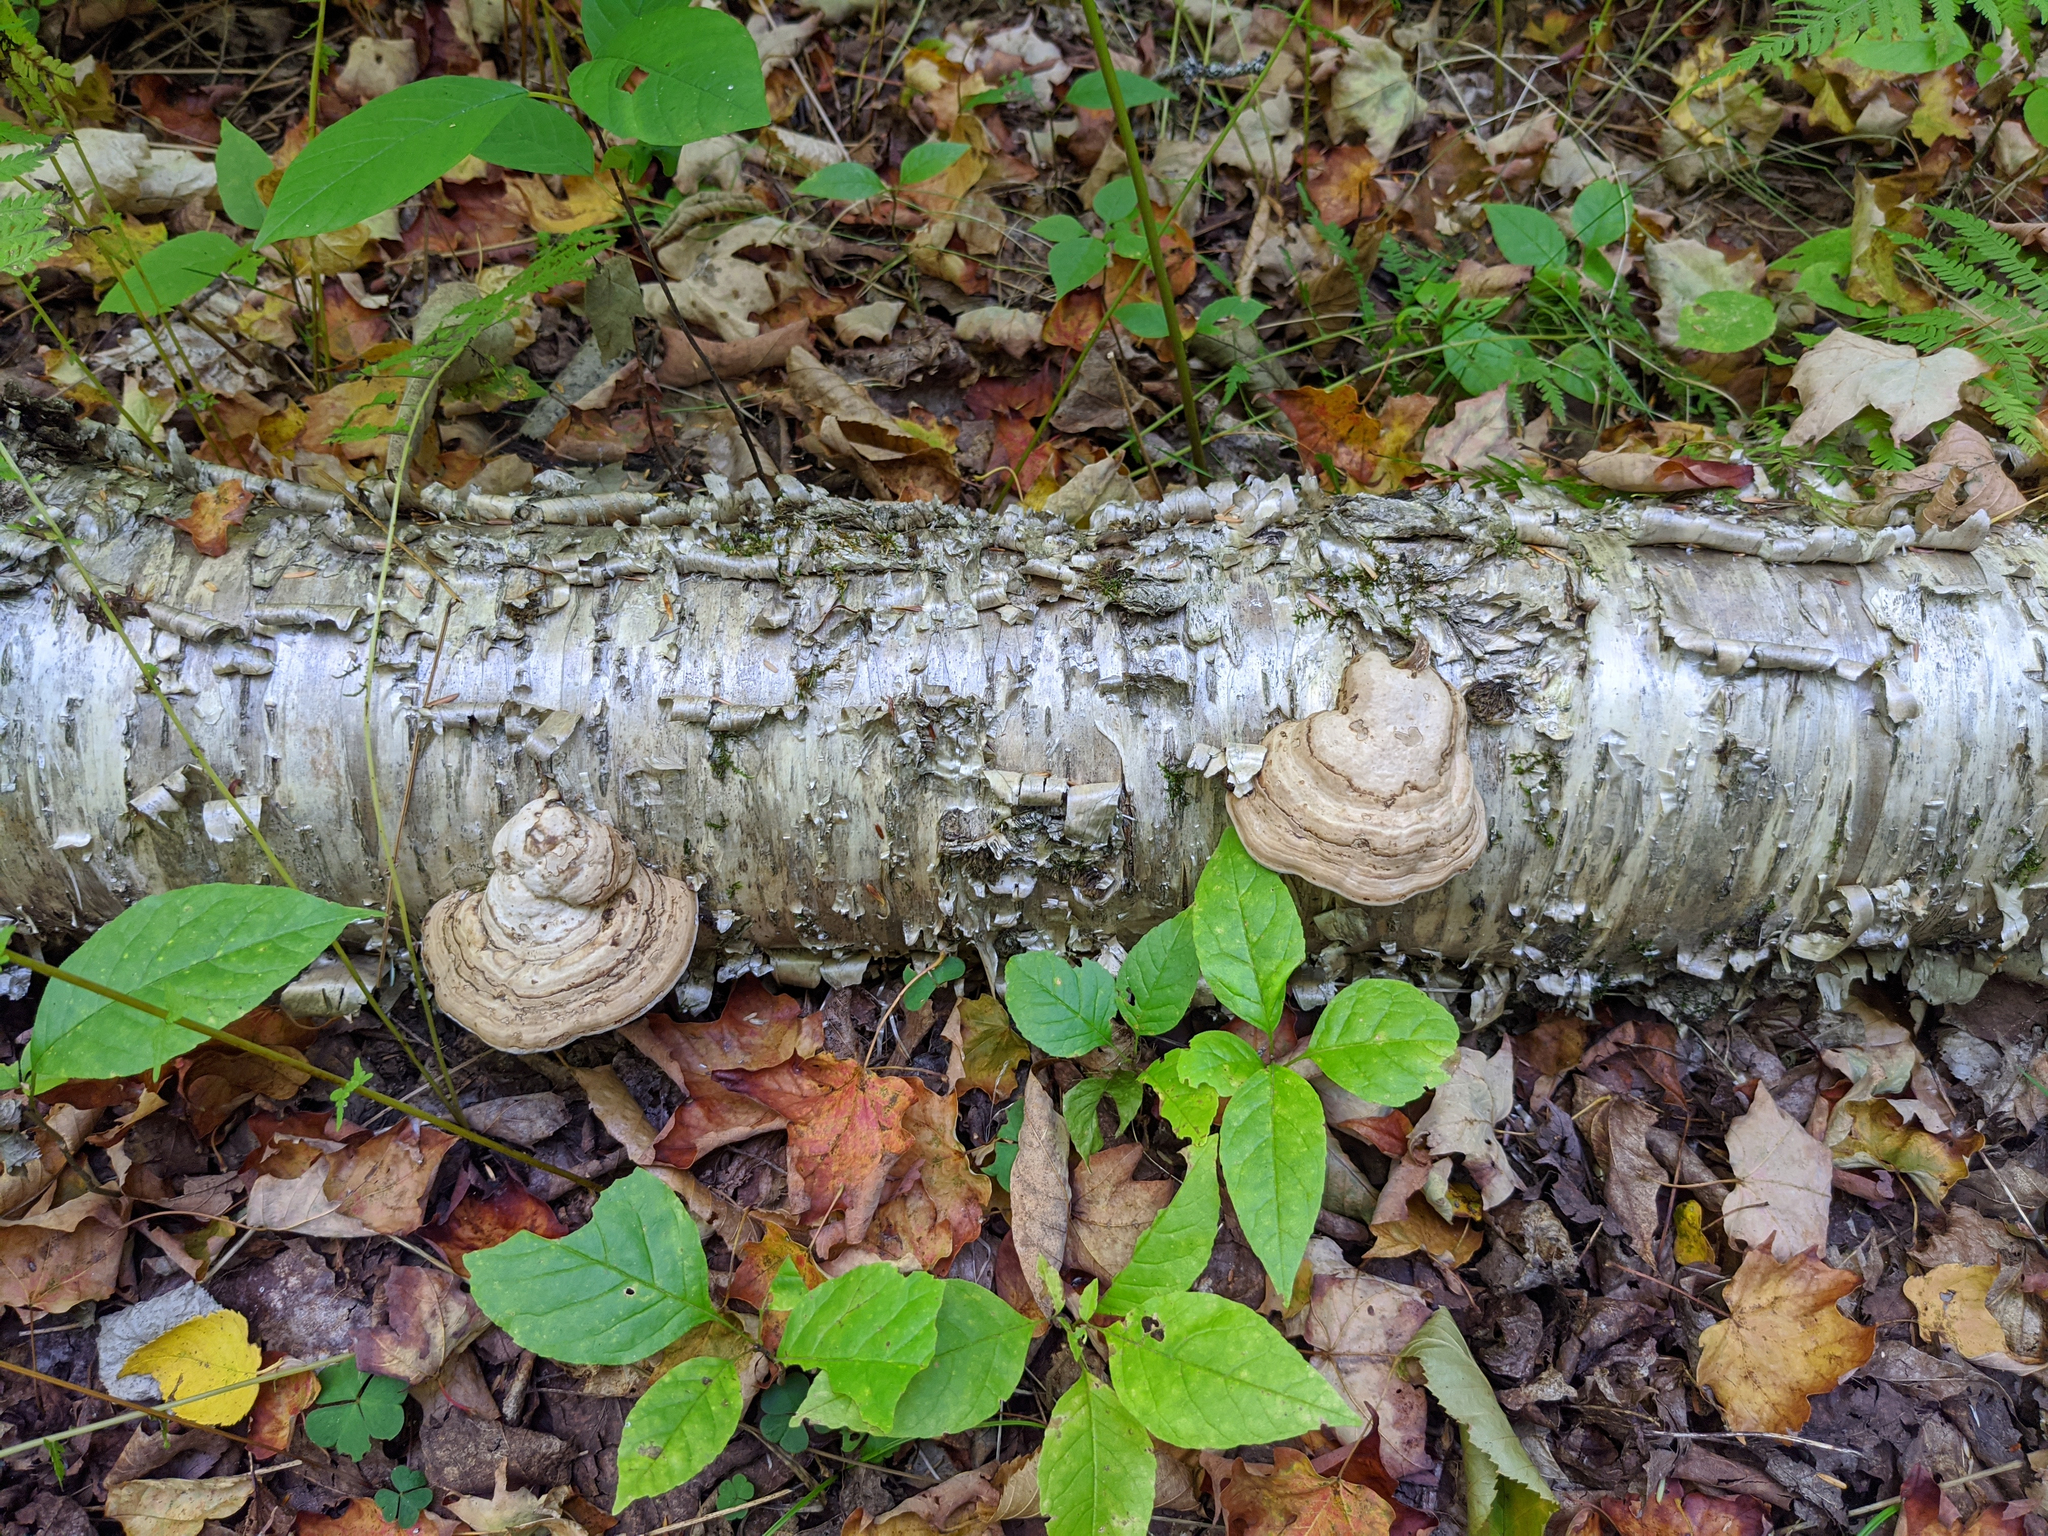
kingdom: Plantae
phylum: Tracheophyta
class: Magnoliopsida
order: Fagales
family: Betulaceae
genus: Betula
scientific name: Betula alleghaniensis
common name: Yellow birch
